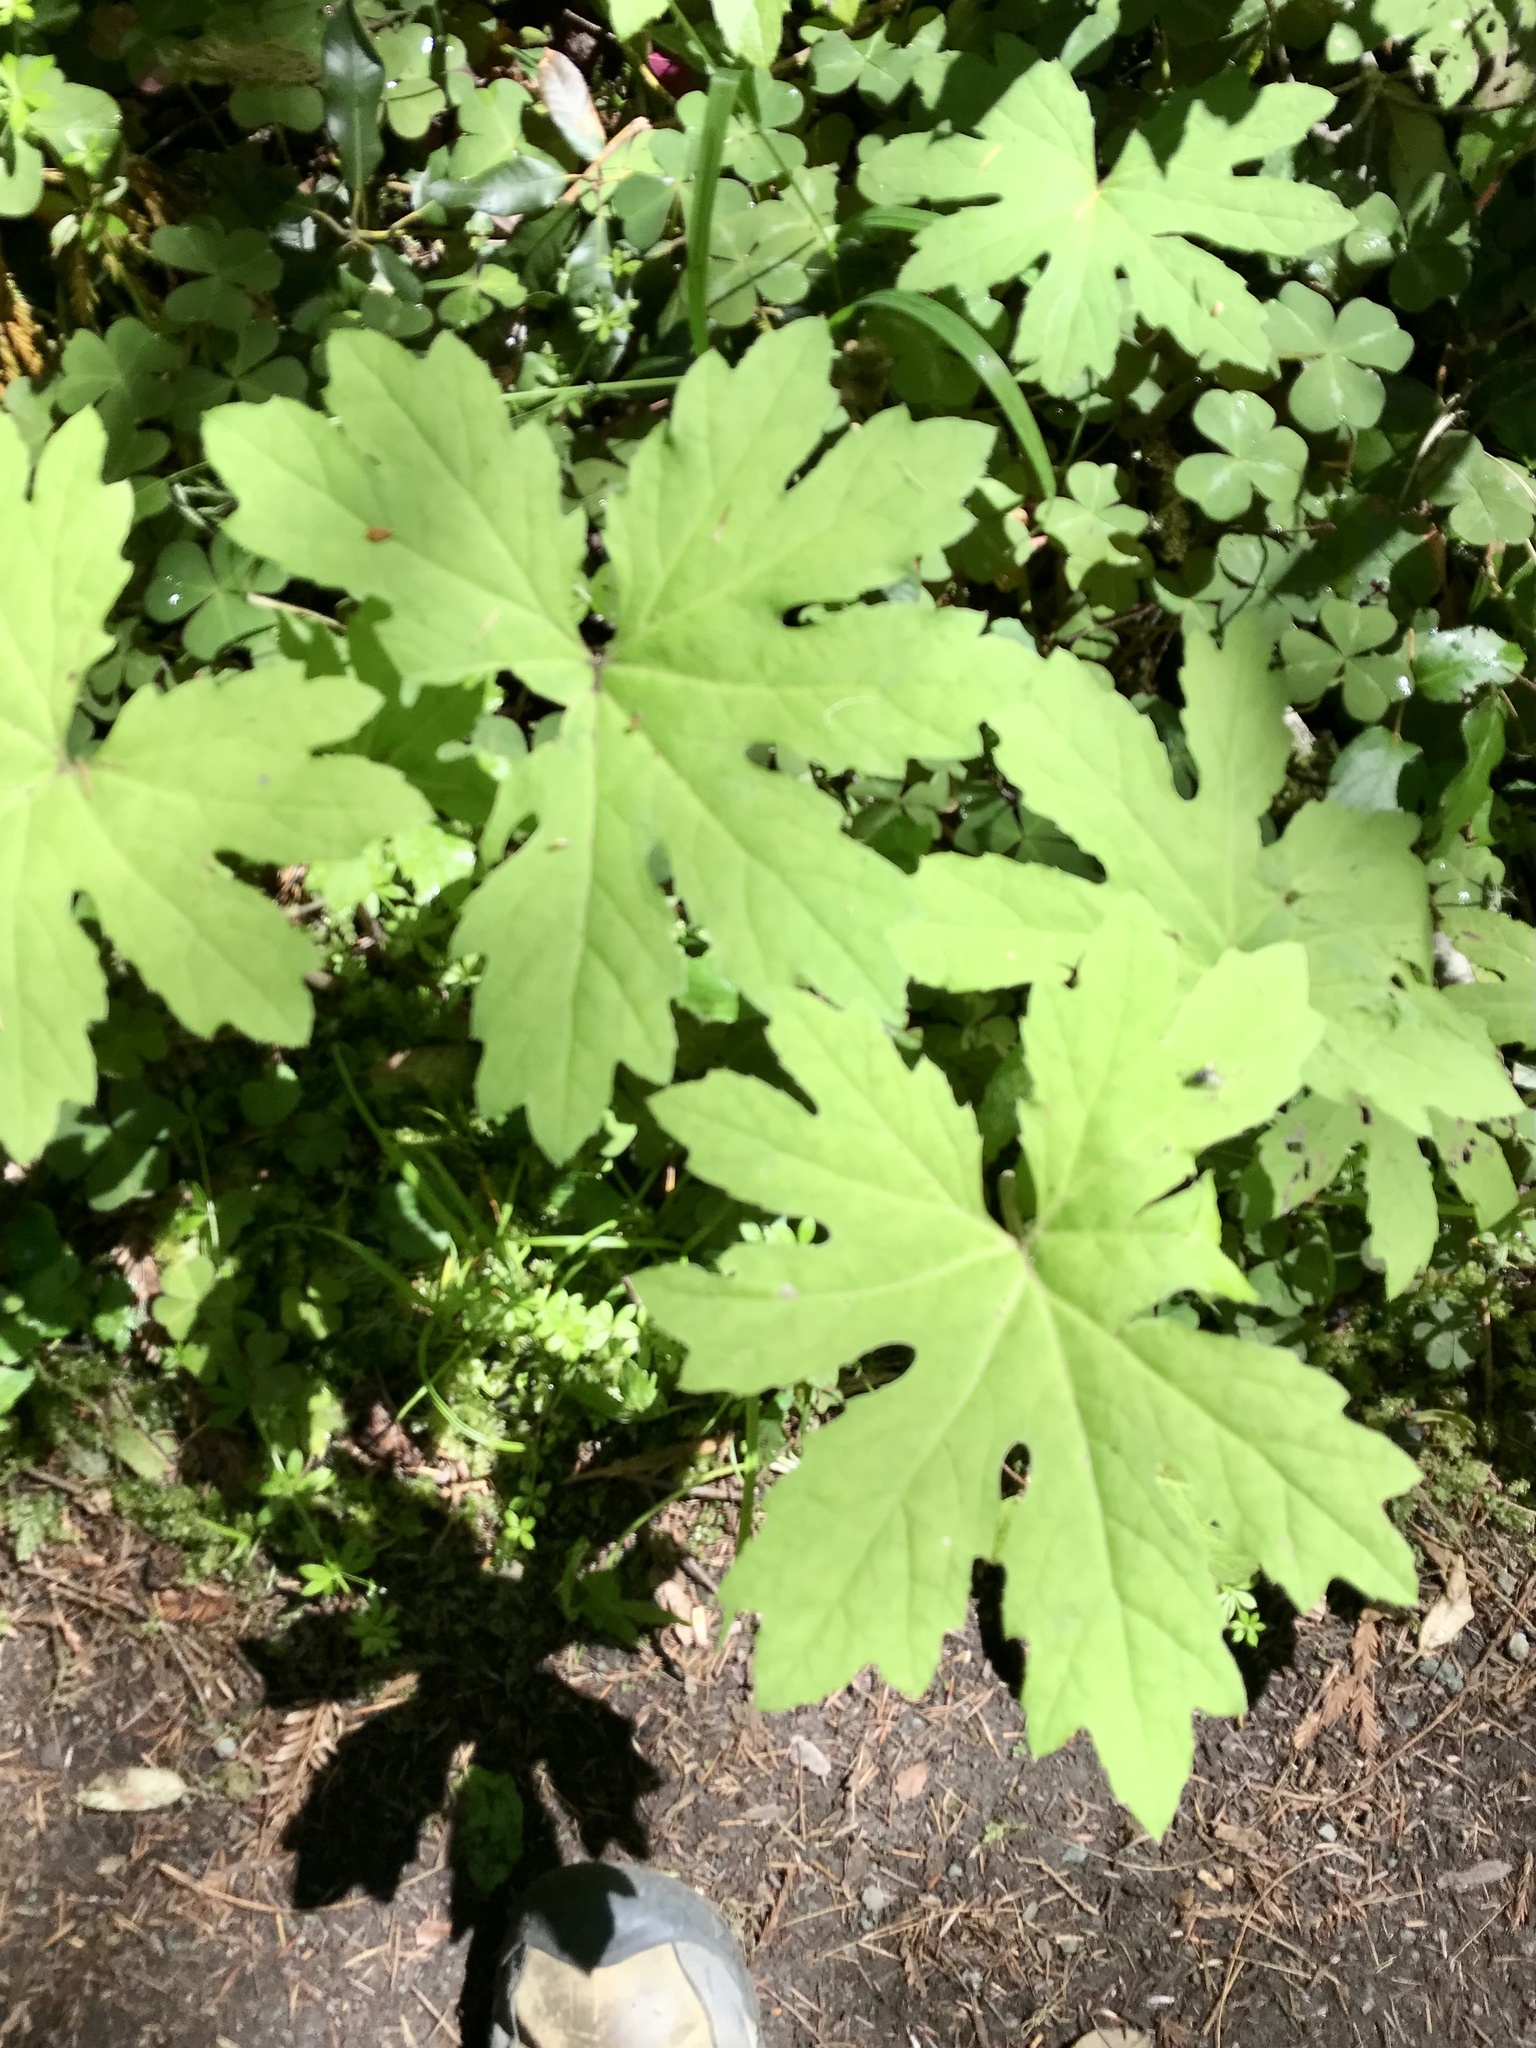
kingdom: Plantae
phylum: Tracheophyta
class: Magnoliopsida
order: Asterales
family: Asteraceae
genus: Petasites
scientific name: Petasites frigidus
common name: Arctic butterbur
